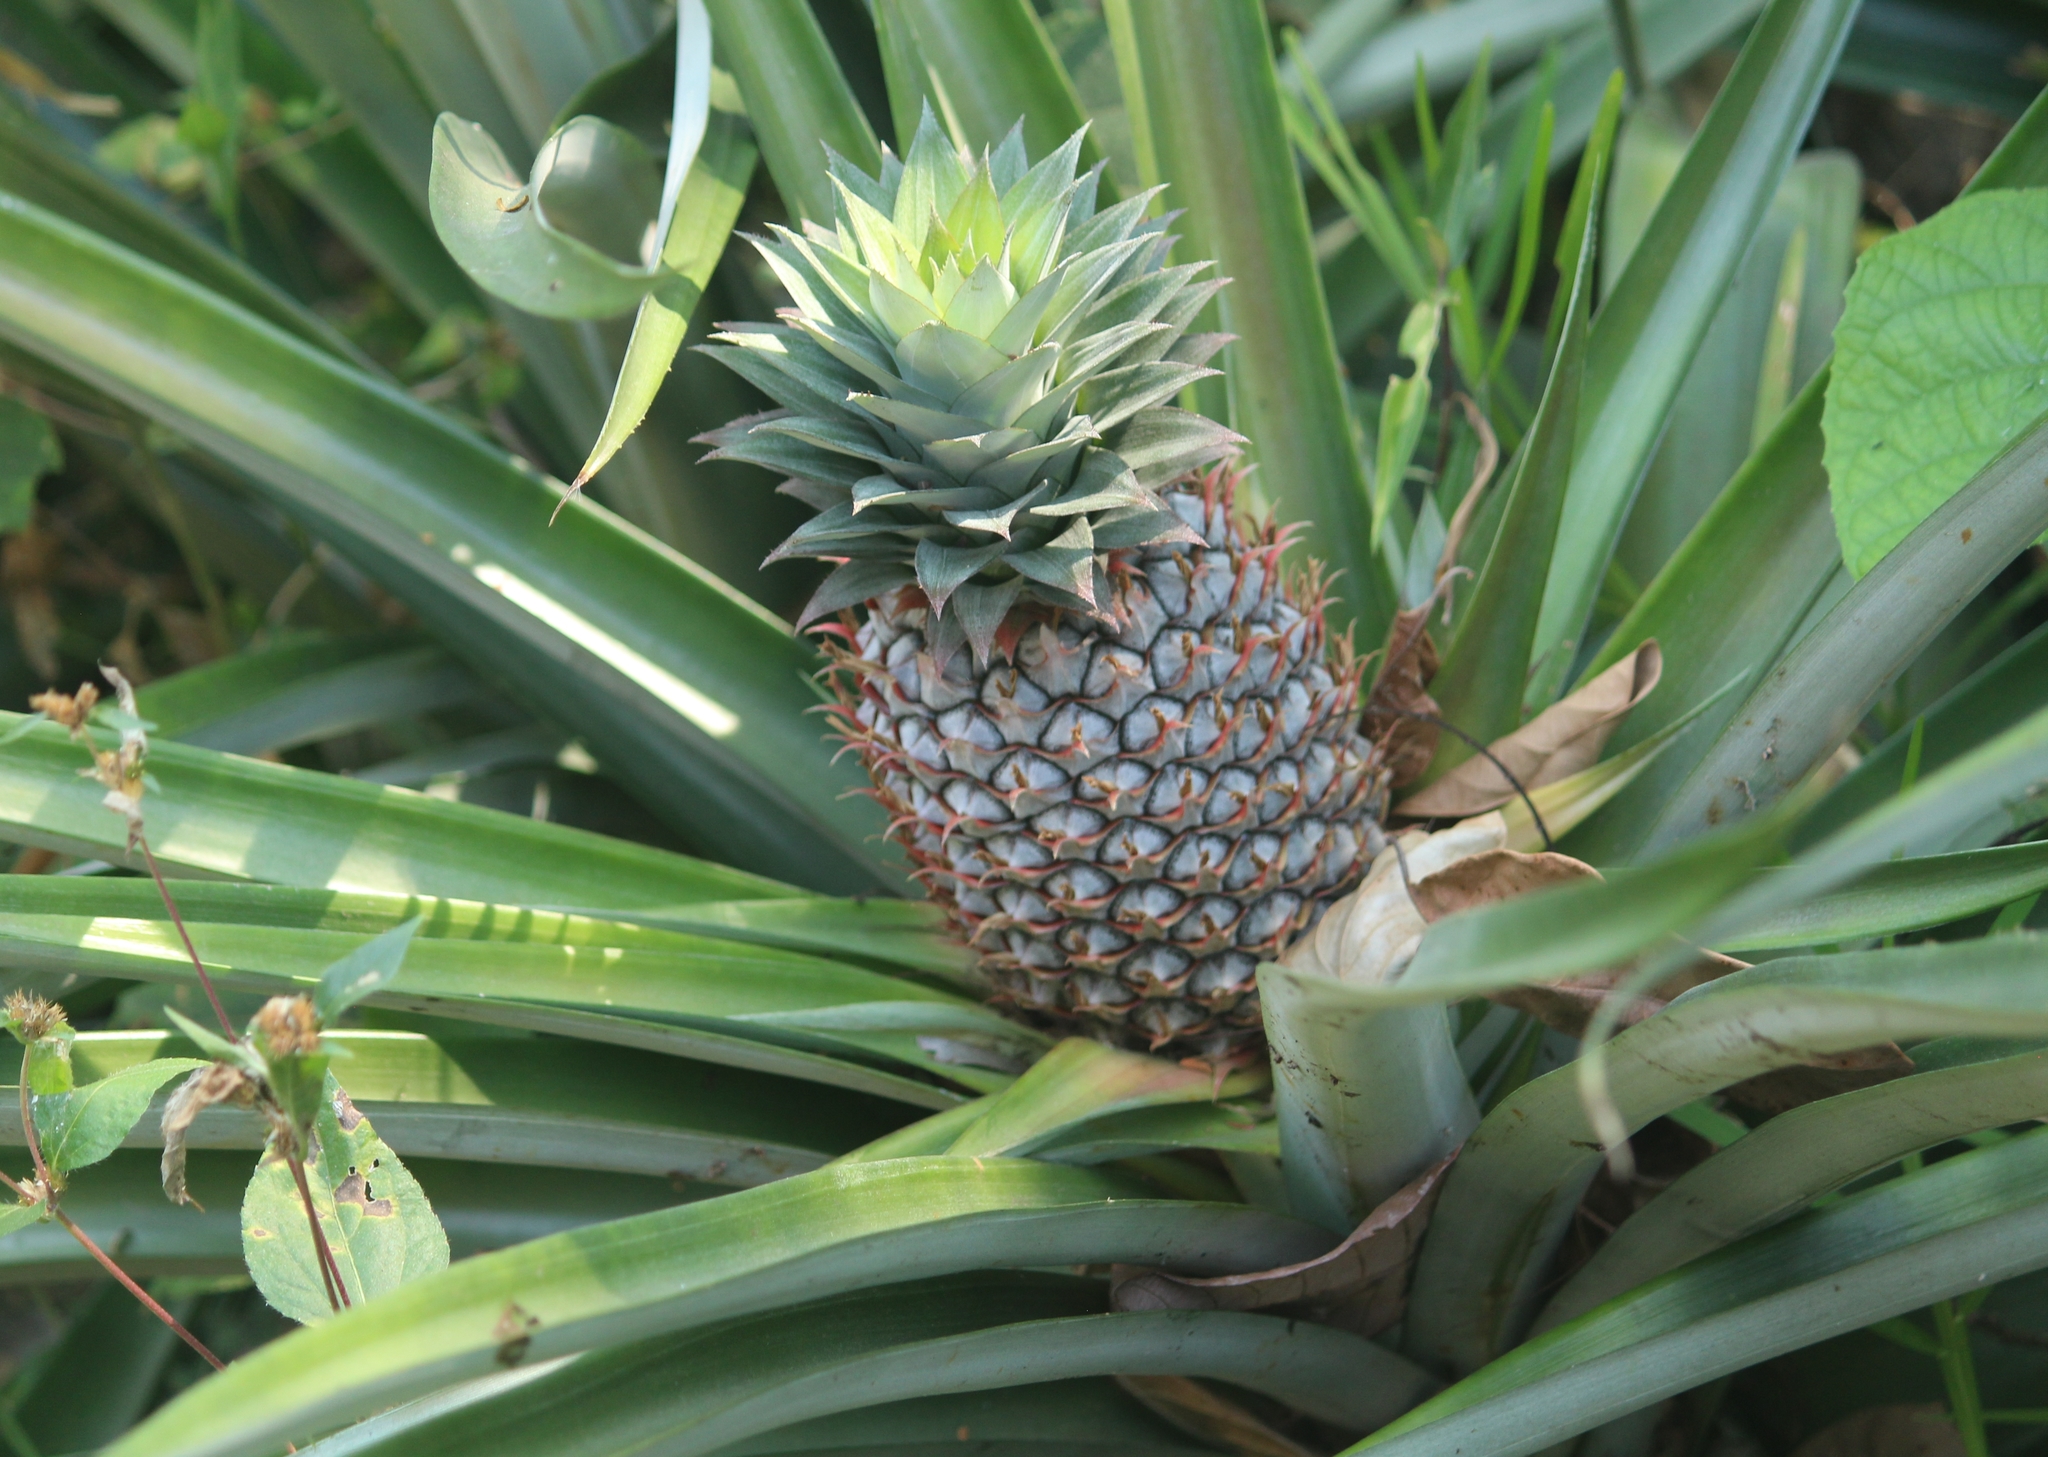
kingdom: Plantae
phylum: Tracheophyta
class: Liliopsida
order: Poales
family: Bromeliaceae
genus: Ananas
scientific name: Ananas comosus
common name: Pineapple
